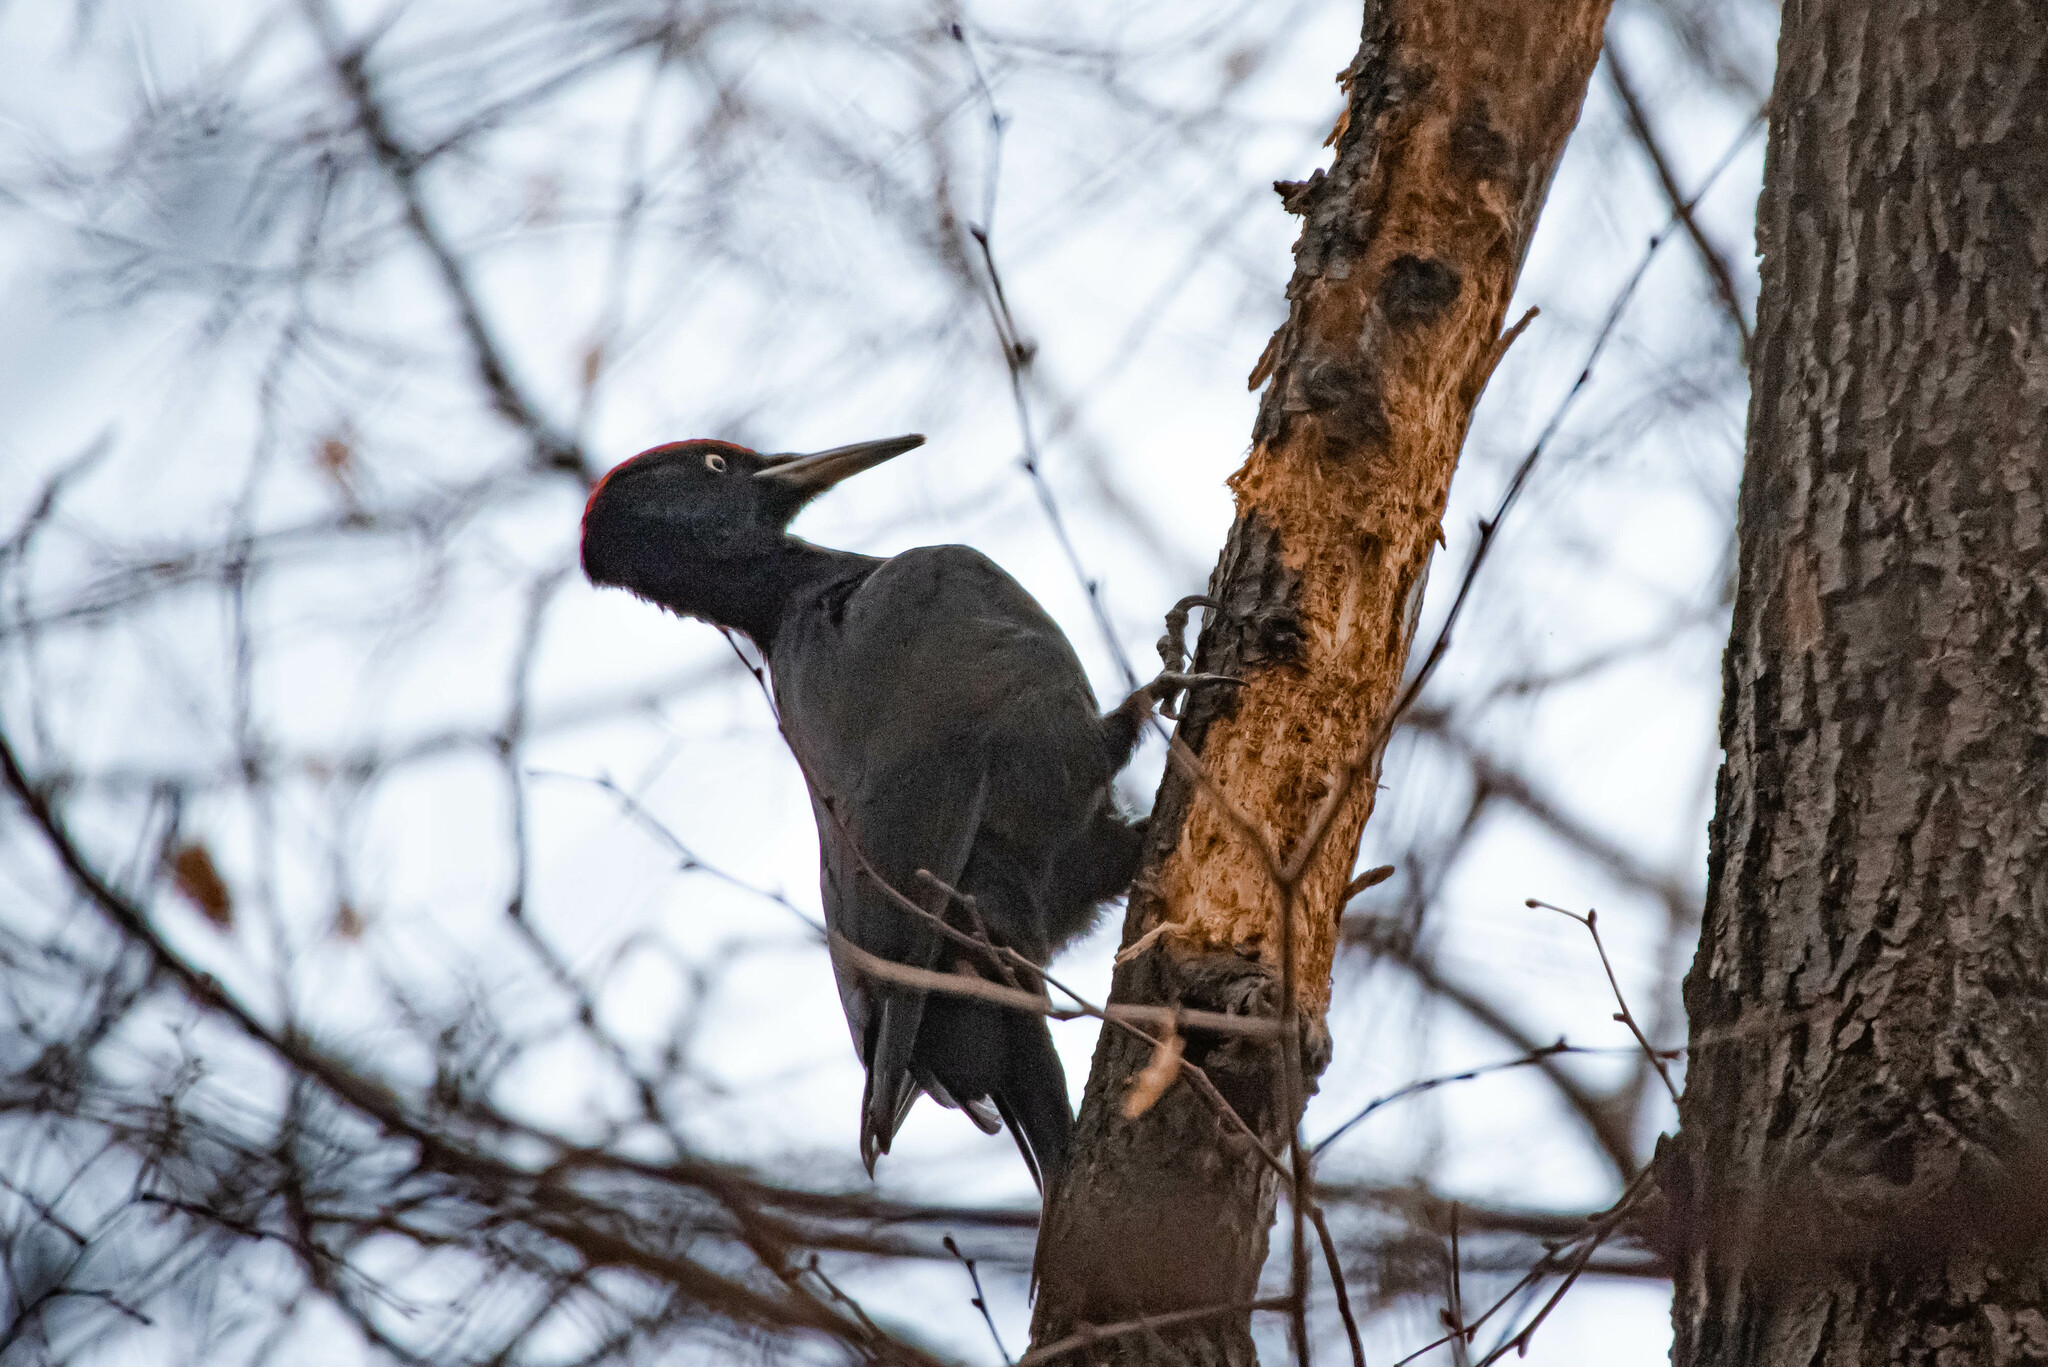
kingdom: Animalia
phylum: Chordata
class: Aves
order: Piciformes
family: Picidae
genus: Dryocopus
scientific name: Dryocopus martius
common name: Black woodpecker
